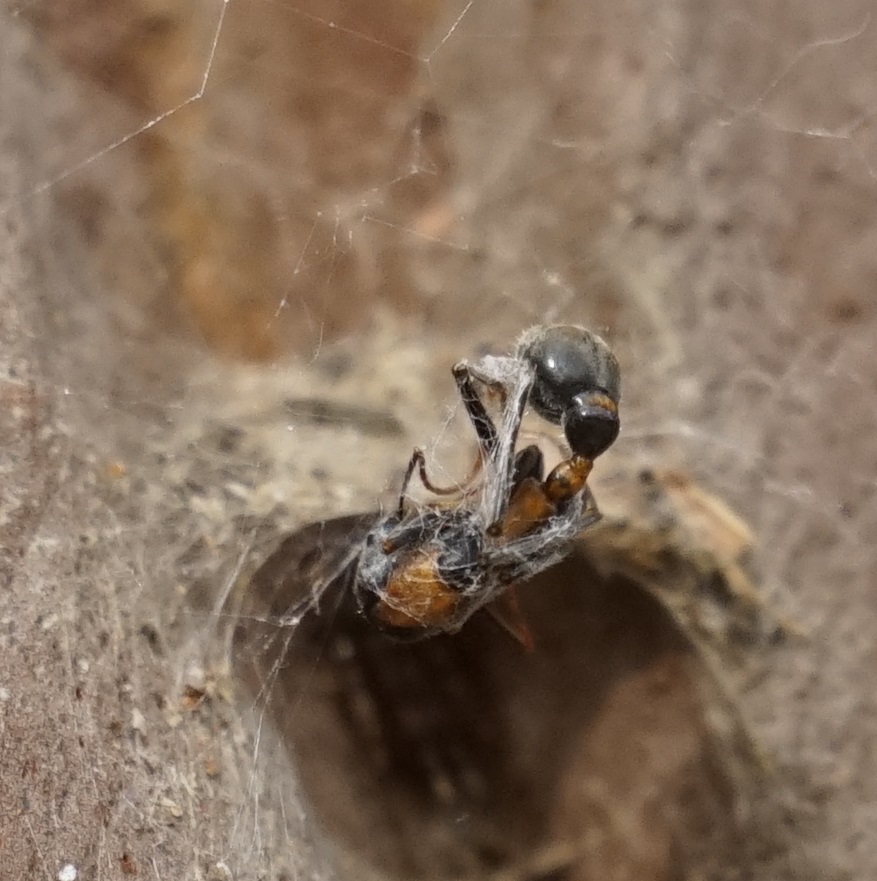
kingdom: Animalia
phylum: Arthropoda
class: Insecta
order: Hymenoptera
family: Formicidae
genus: Myrmecia
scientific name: Myrmecia nigrocincta
